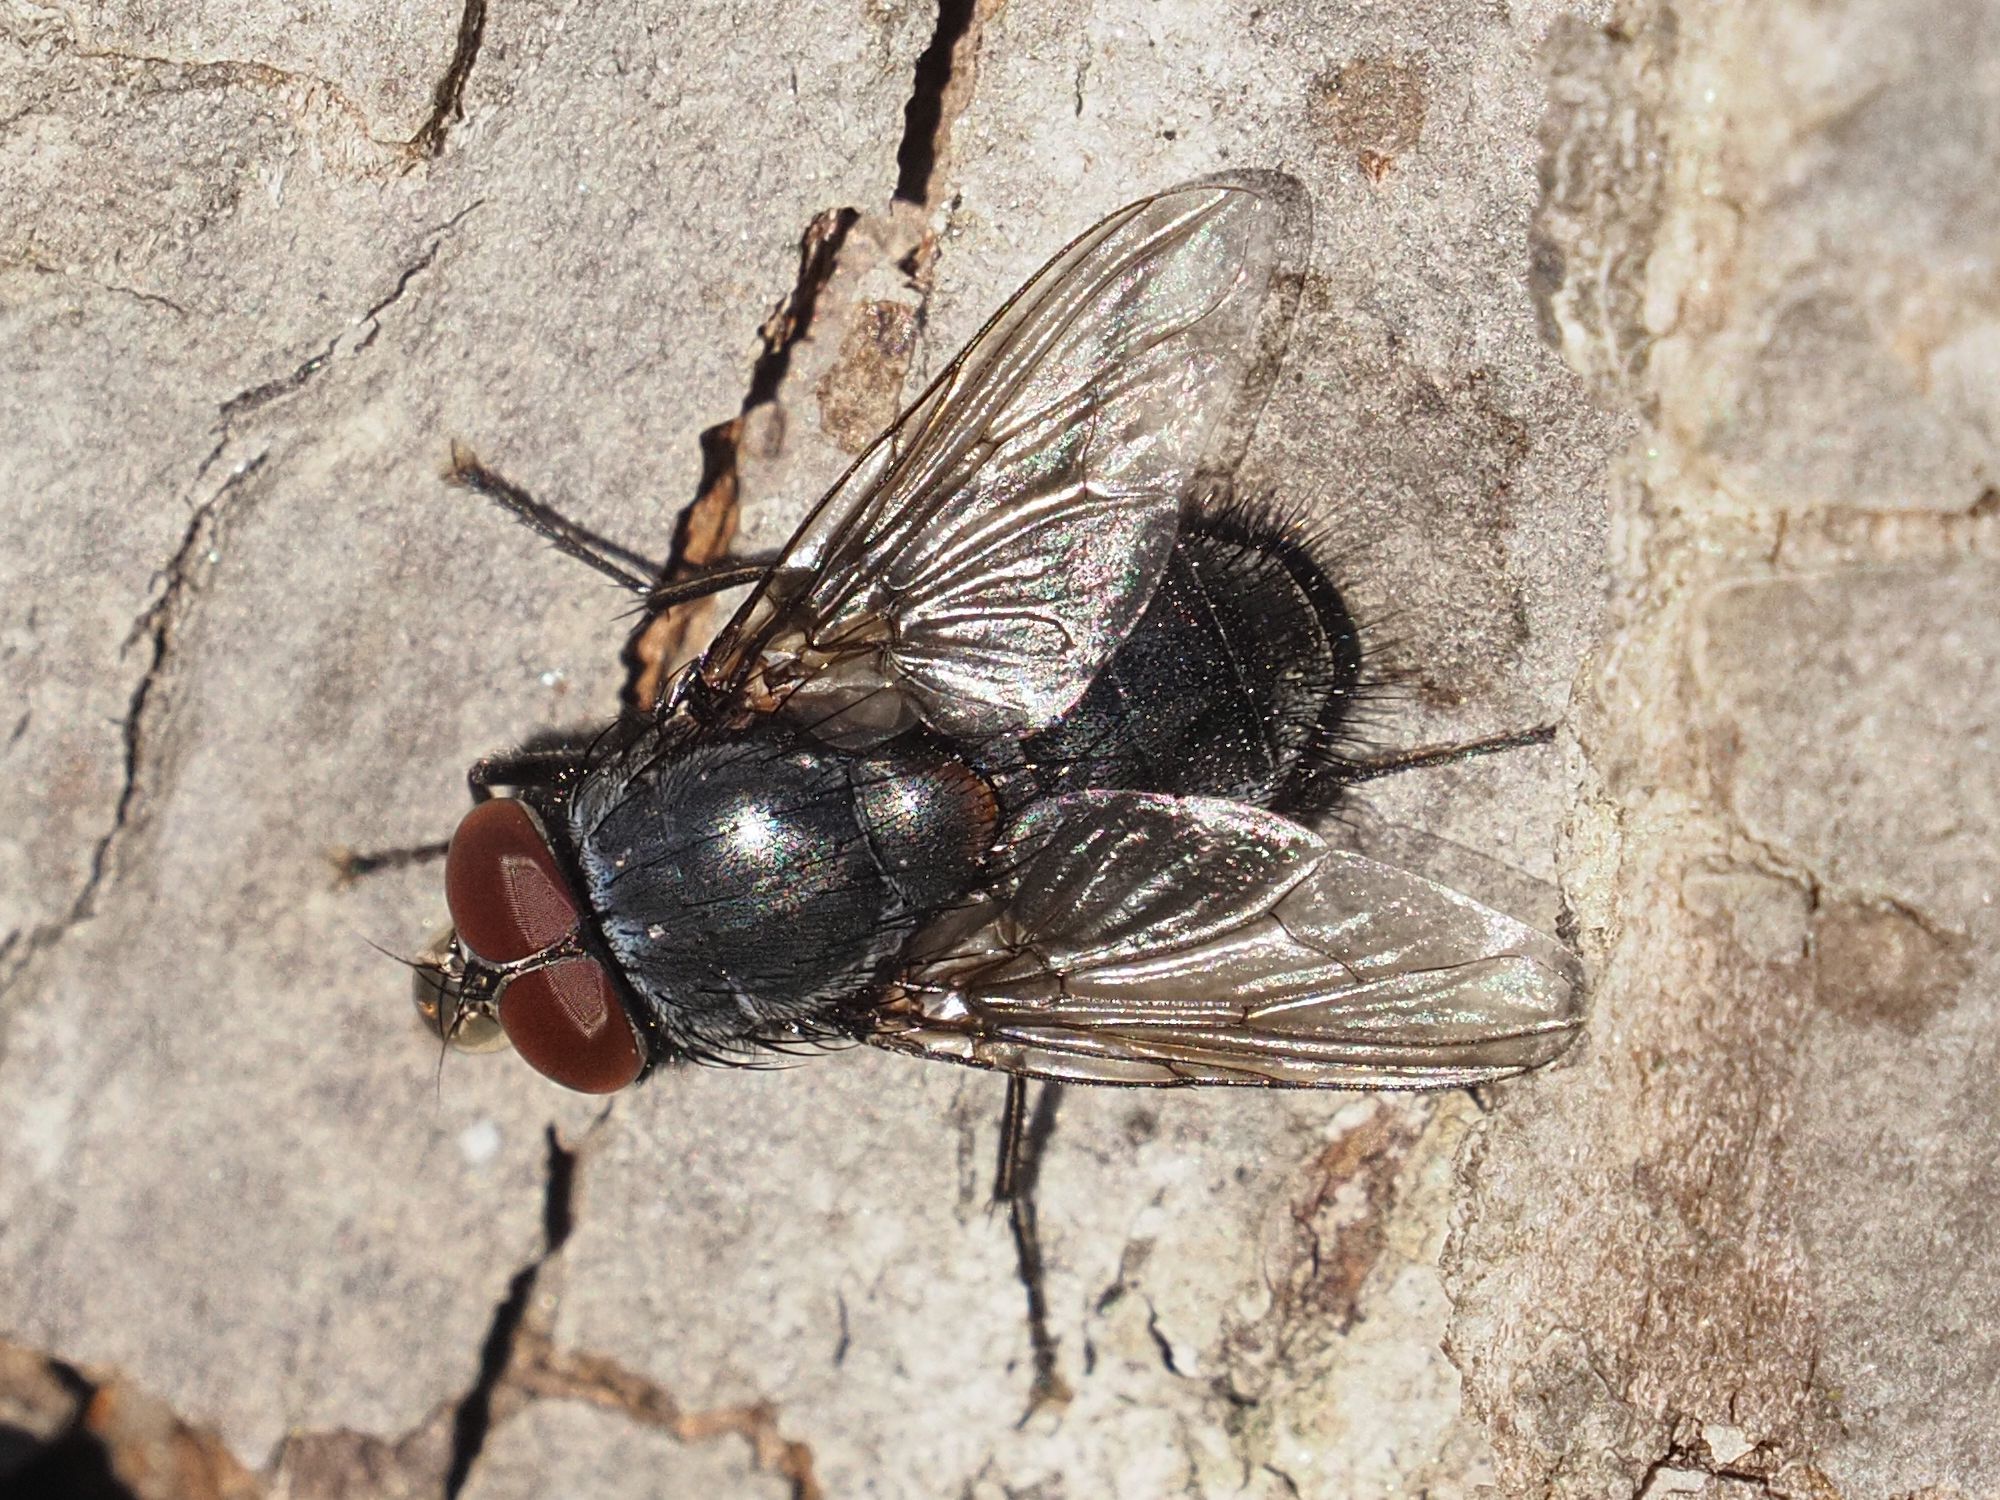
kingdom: Animalia
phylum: Arthropoda
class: Insecta
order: Diptera
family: Muscidae
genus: Muscina
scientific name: Muscina pascuorum
